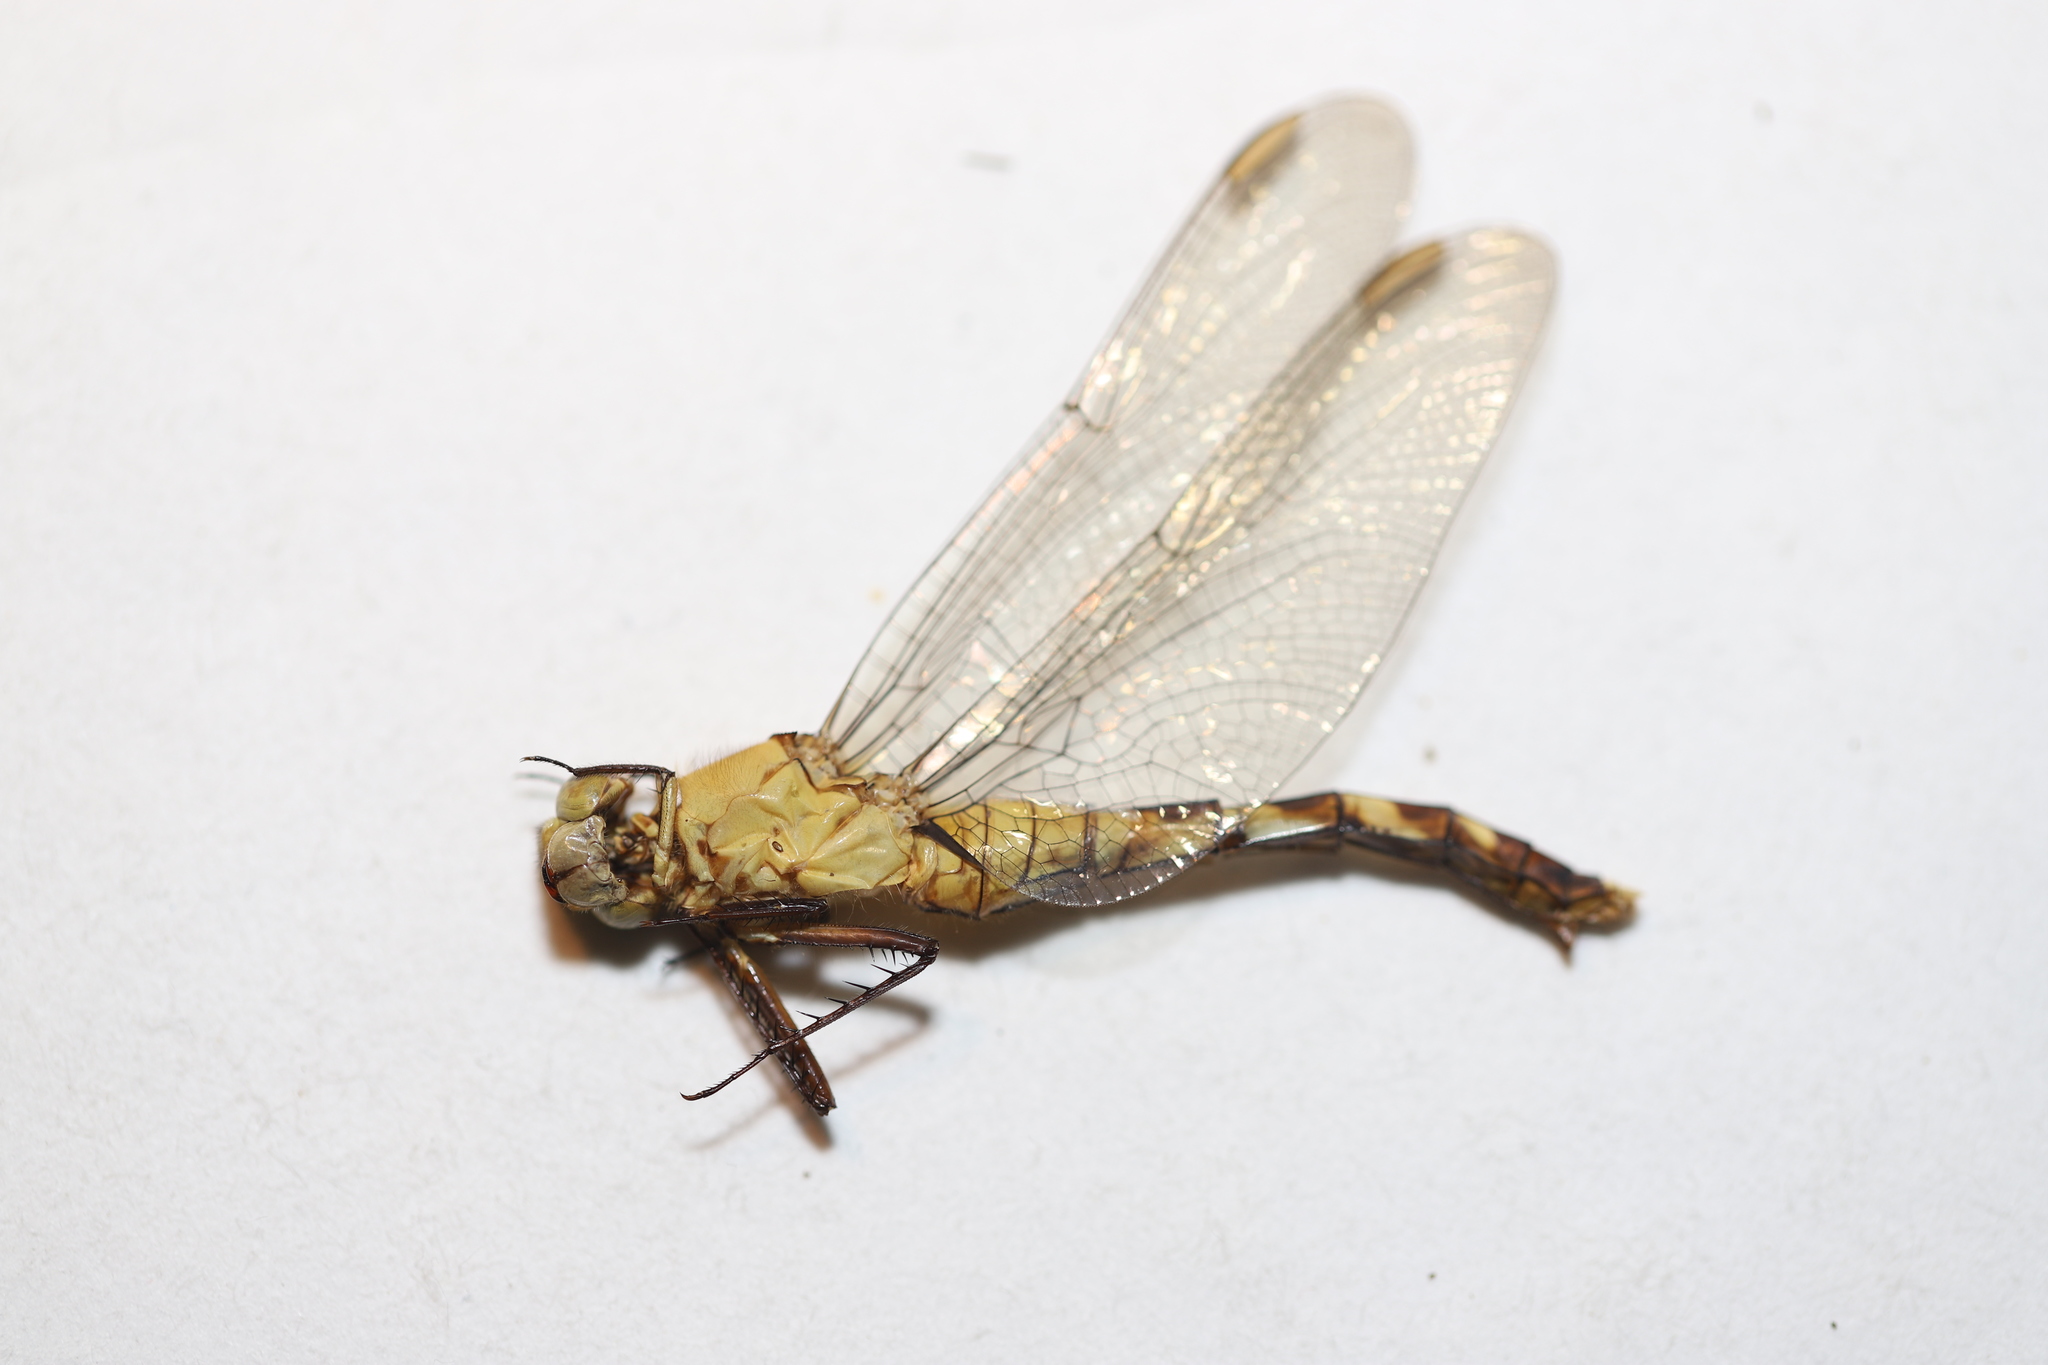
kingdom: Animalia
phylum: Arthropoda
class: Insecta
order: Odonata
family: Libellulidae
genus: Erythemis
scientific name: Erythemis simplicicollis
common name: Eastern pondhawk
